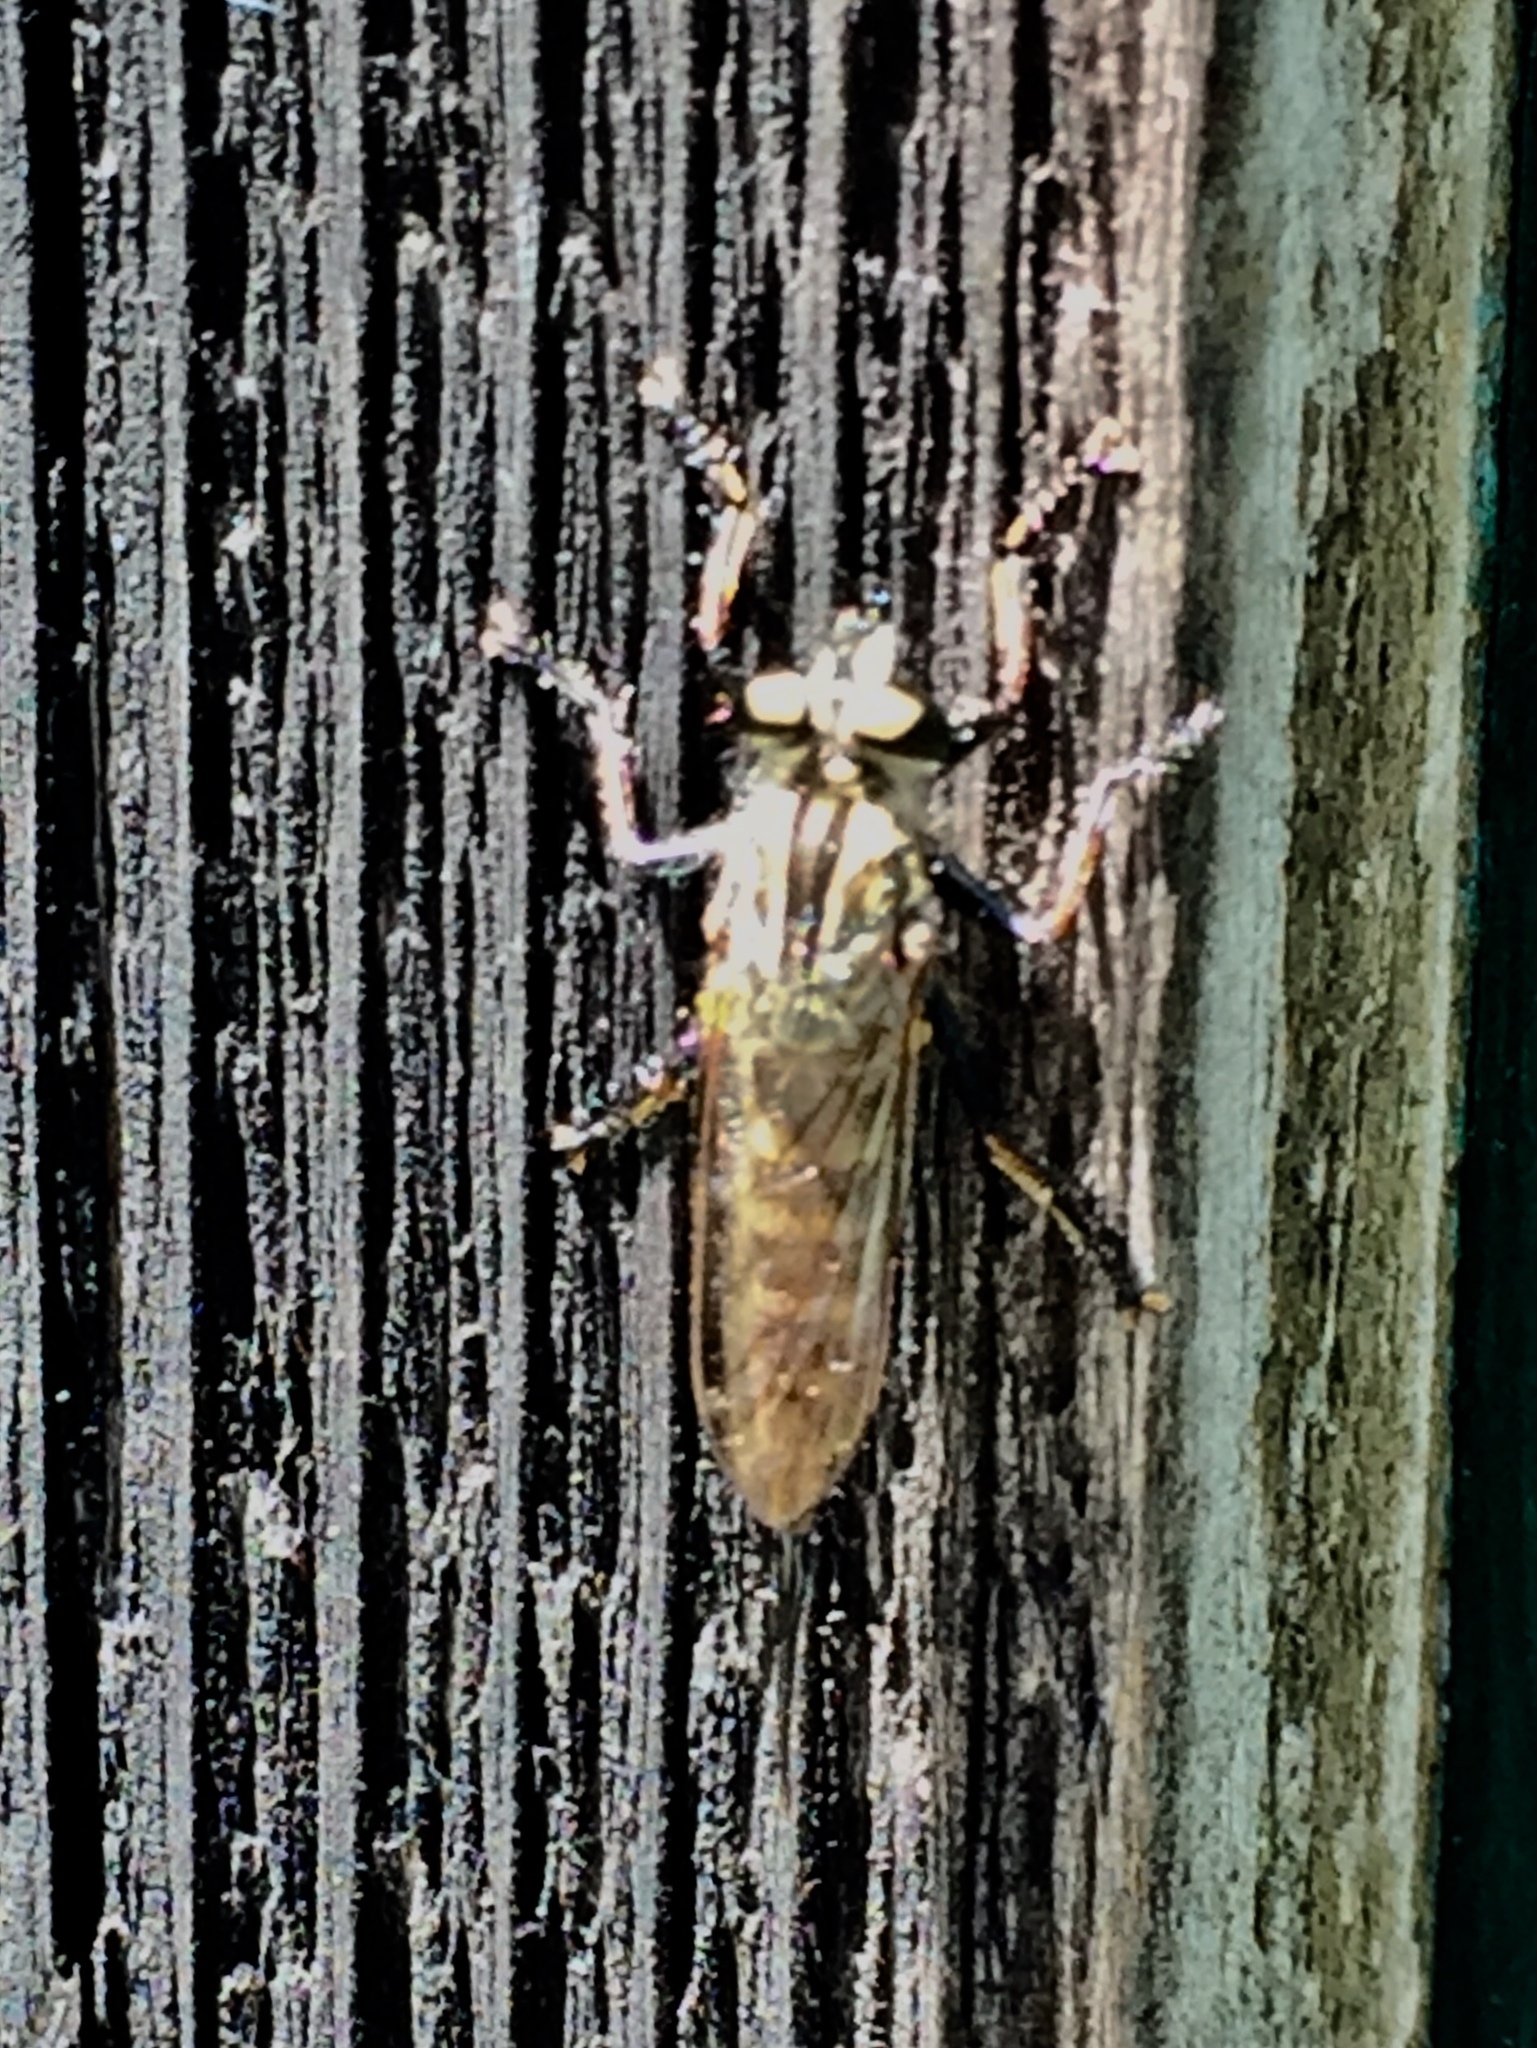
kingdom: Animalia
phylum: Arthropoda
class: Insecta
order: Diptera
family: Asilidae
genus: Efferia
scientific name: Efferia aestuans
